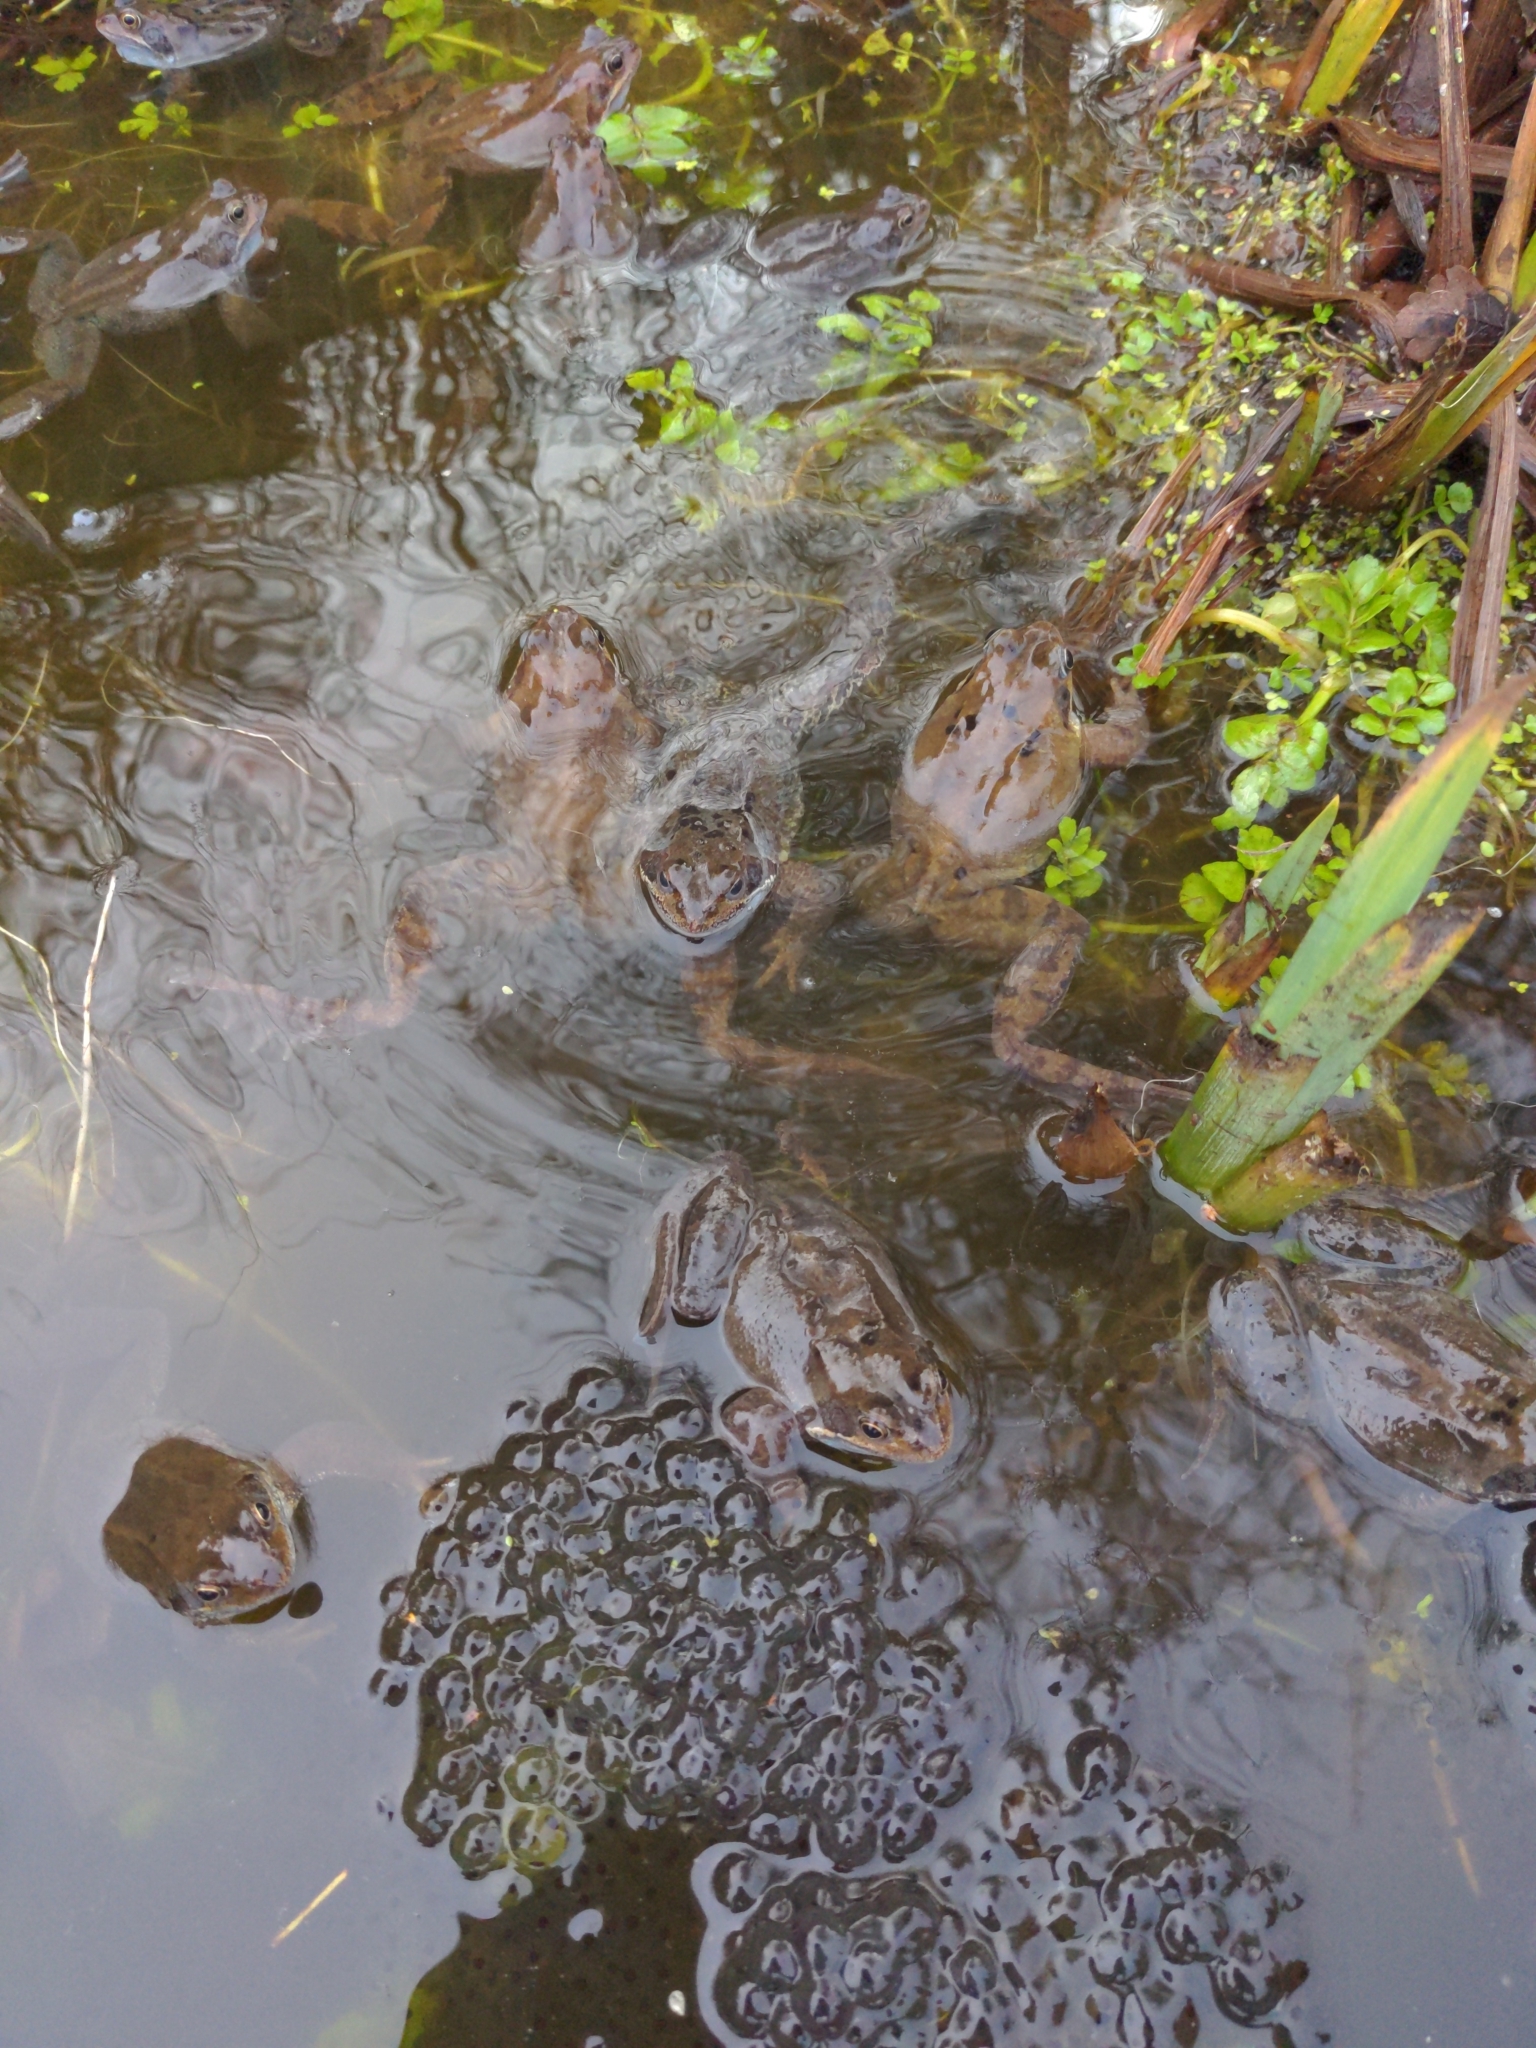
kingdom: Animalia
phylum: Chordata
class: Amphibia
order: Anura
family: Ranidae
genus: Rana
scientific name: Rana temporaria
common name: Common frog
